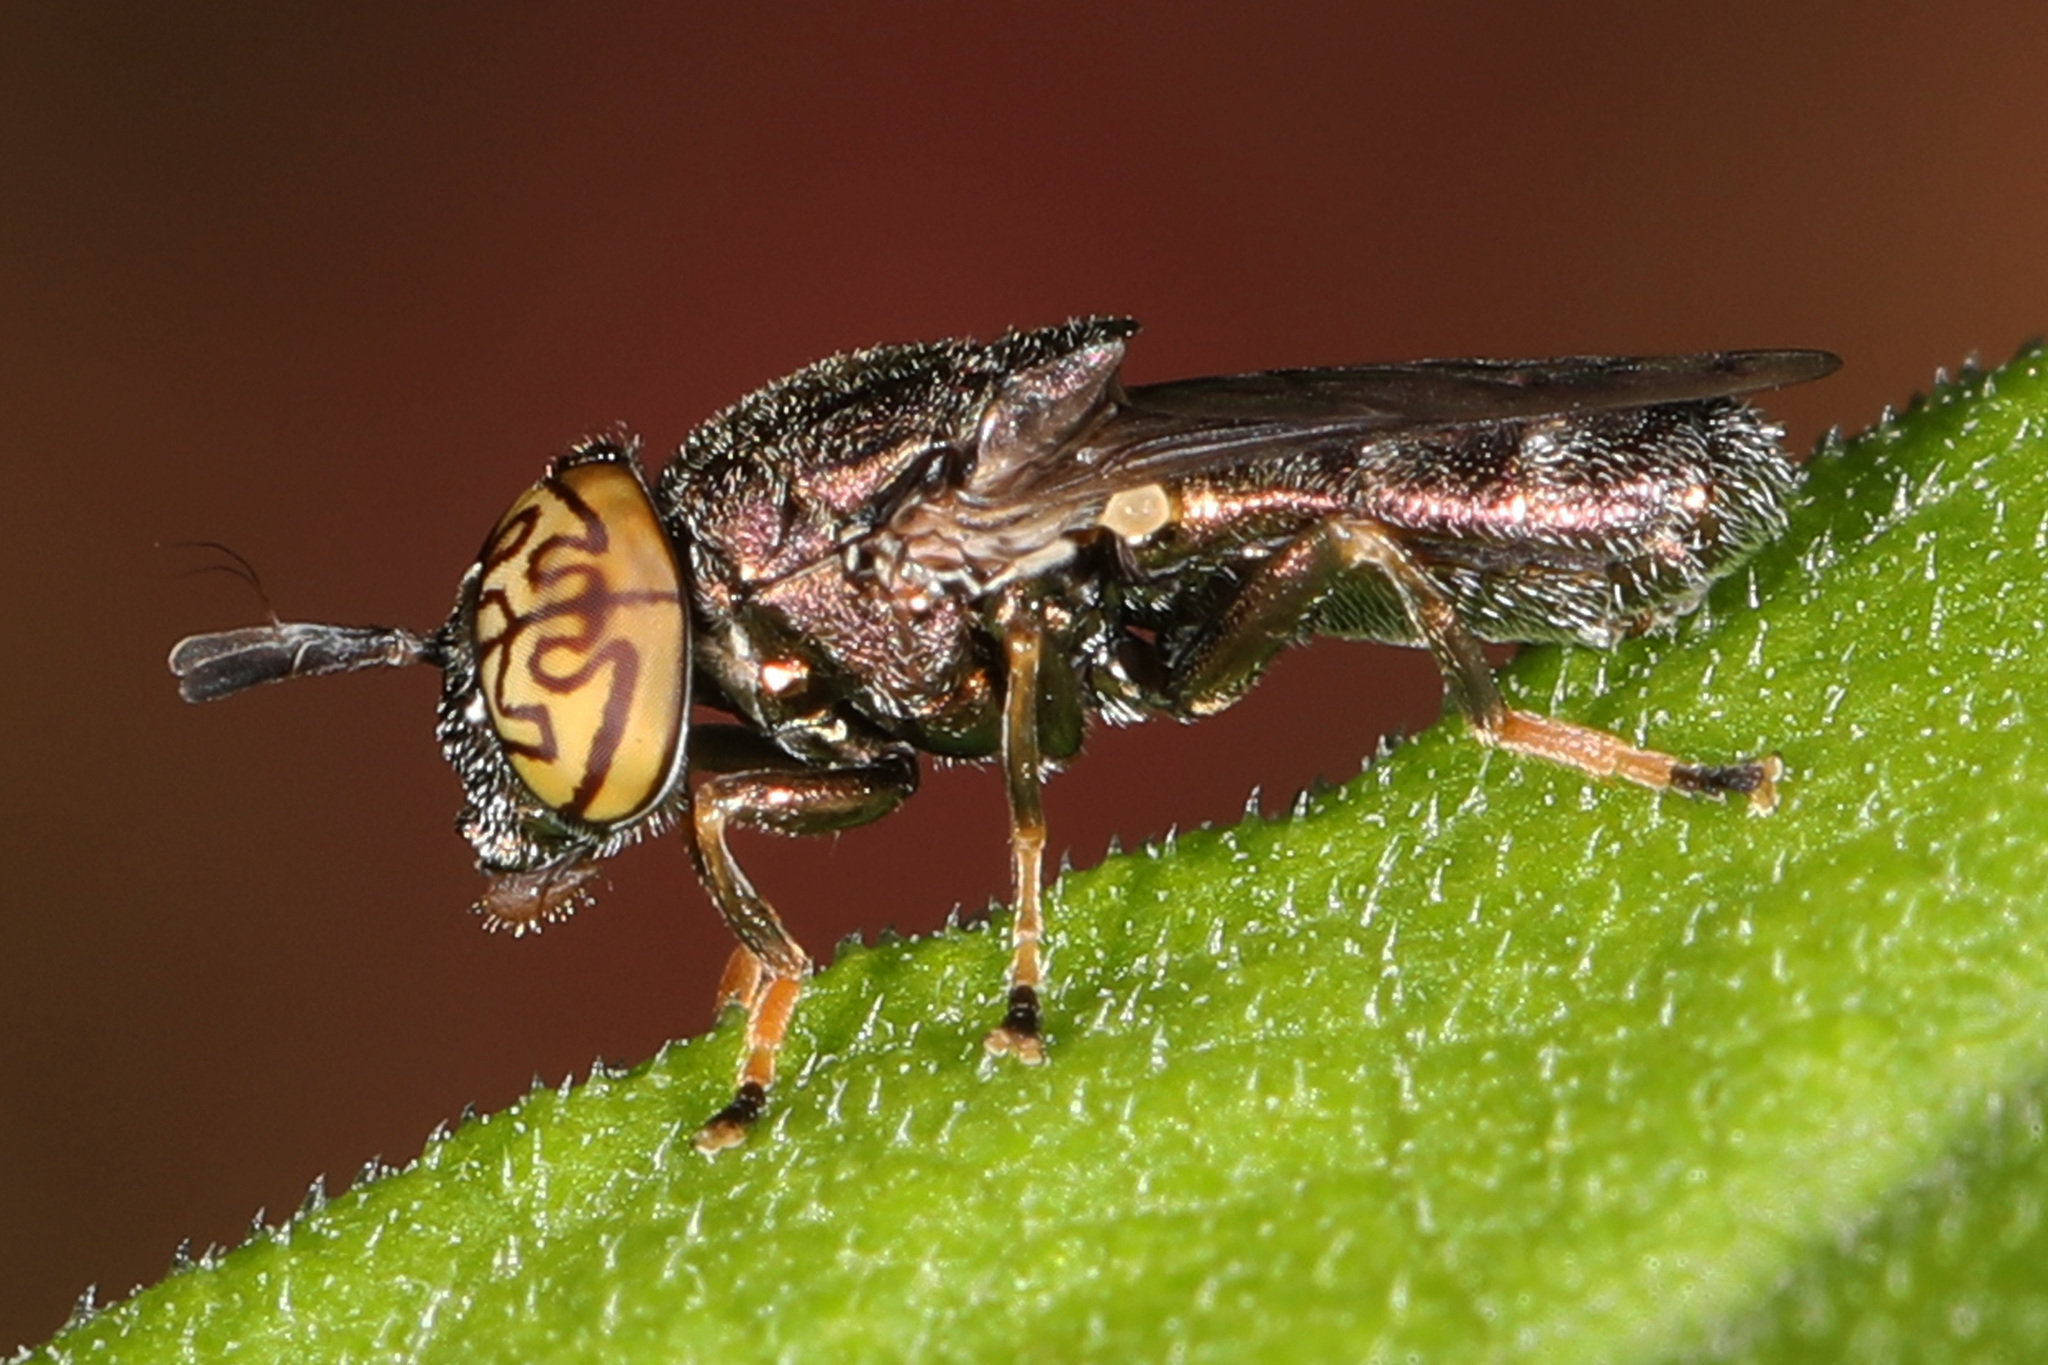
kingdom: Animalia
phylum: Arthropoda
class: Insecta
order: Diptera
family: Syrphidae
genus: Orthonevra
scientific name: Orthonevra nitida
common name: Wavy mucksucker
